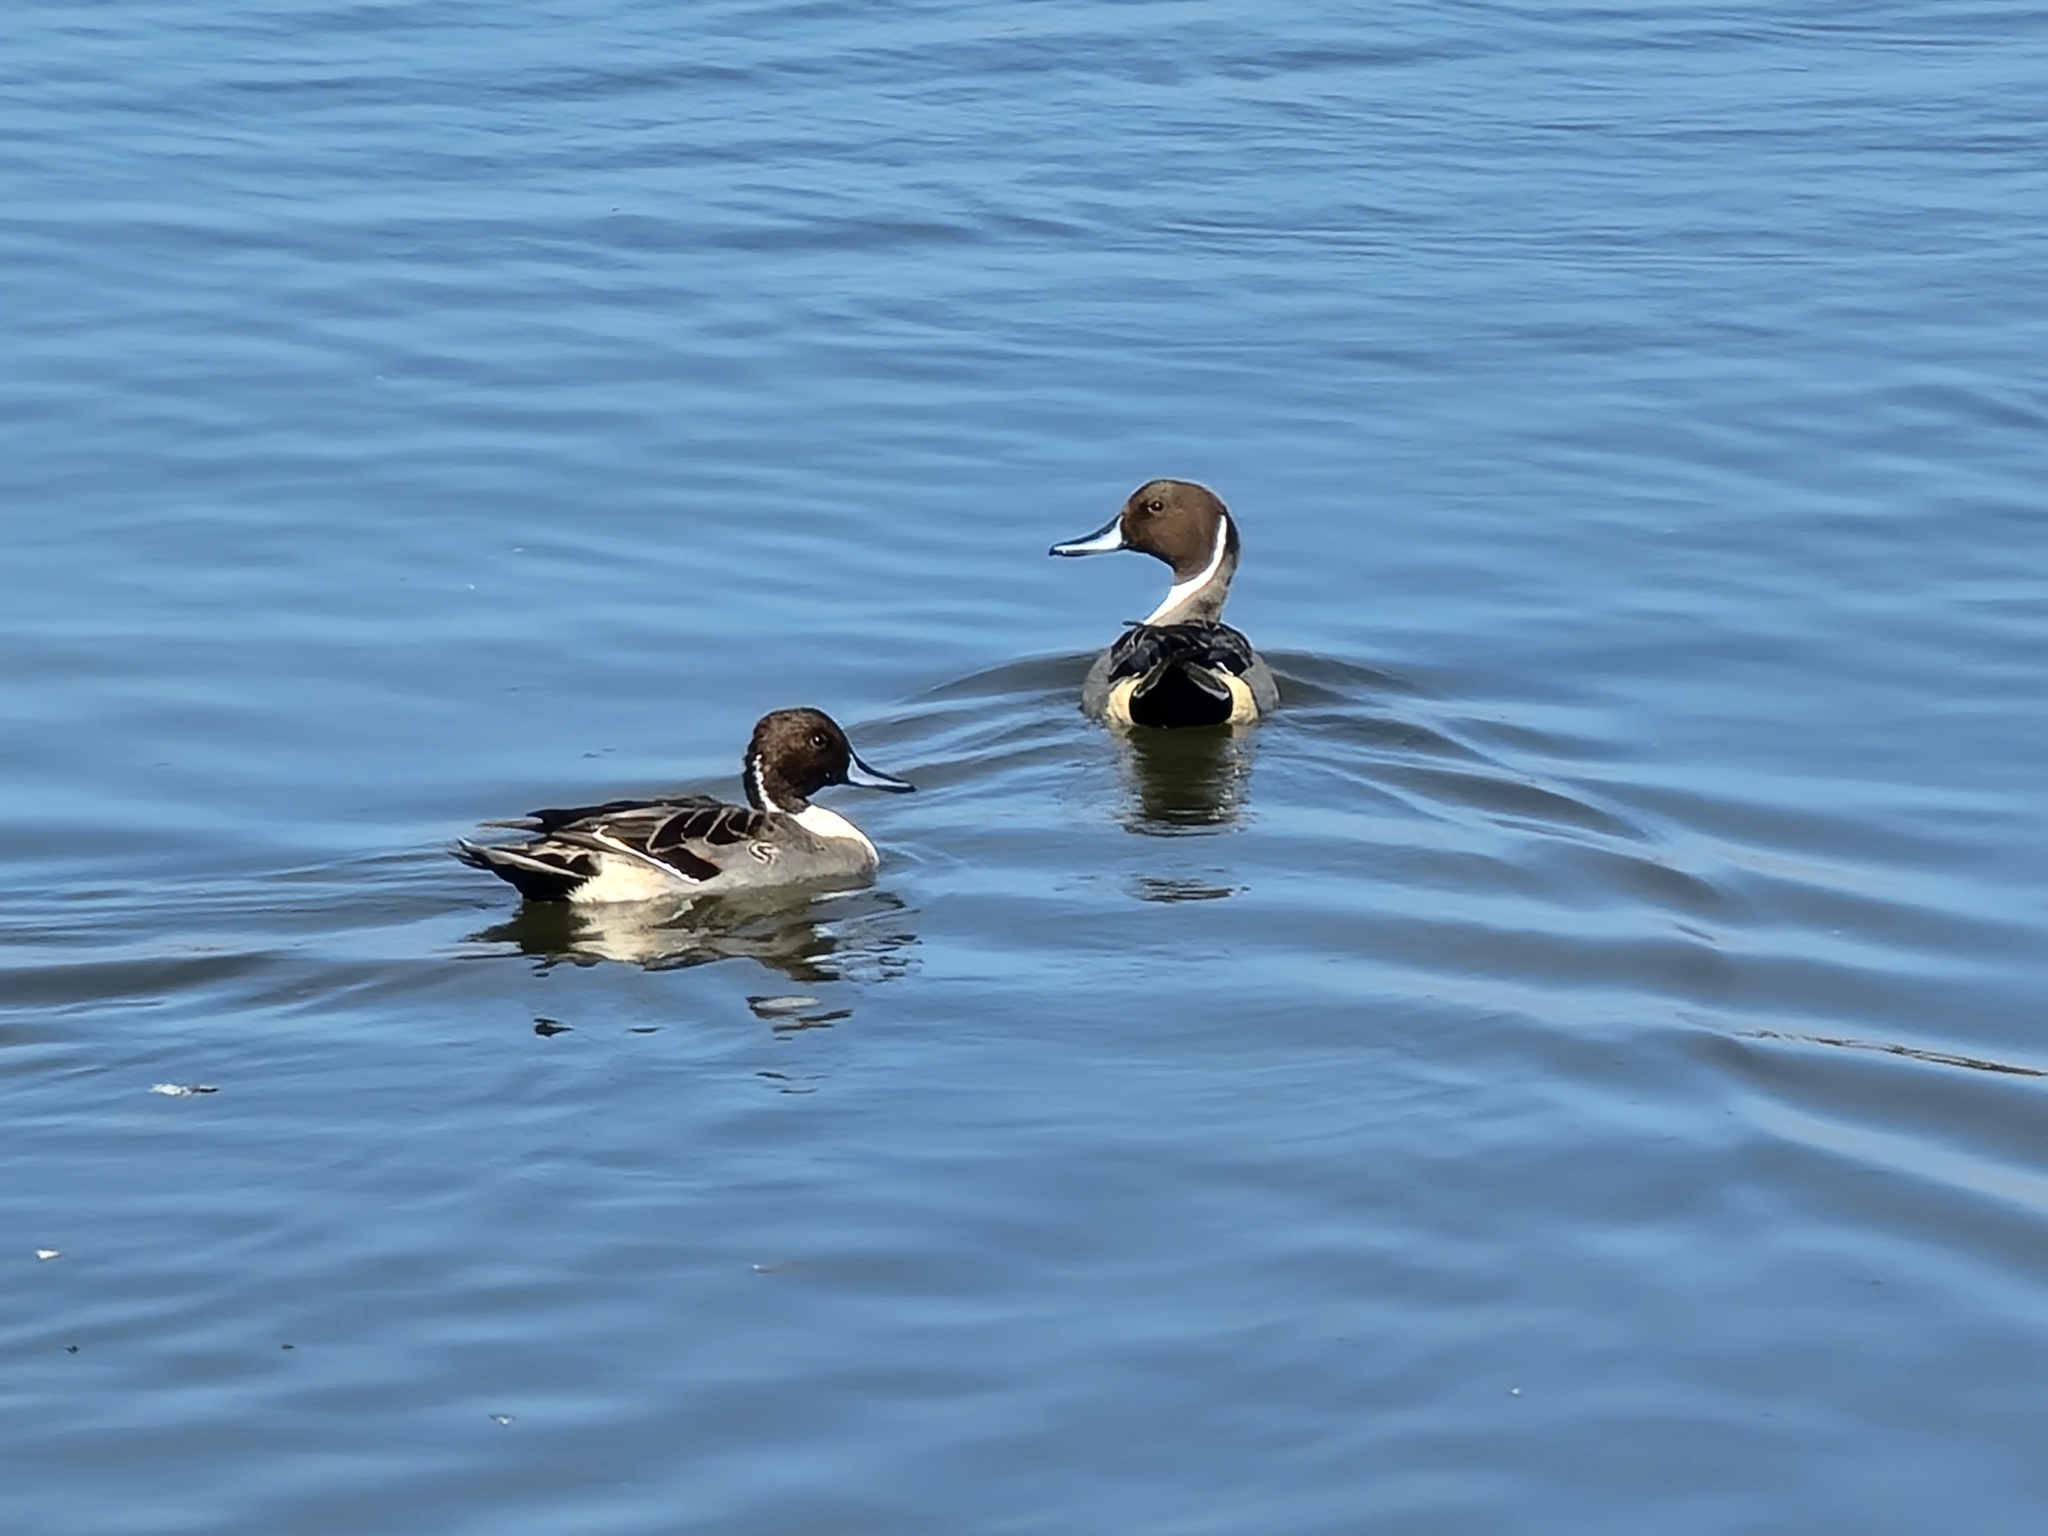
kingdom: Animalia
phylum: Chordata
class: Aves
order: Anseriformes
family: Anatidae
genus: Anas
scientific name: Anas acuta
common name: Northern pintail
